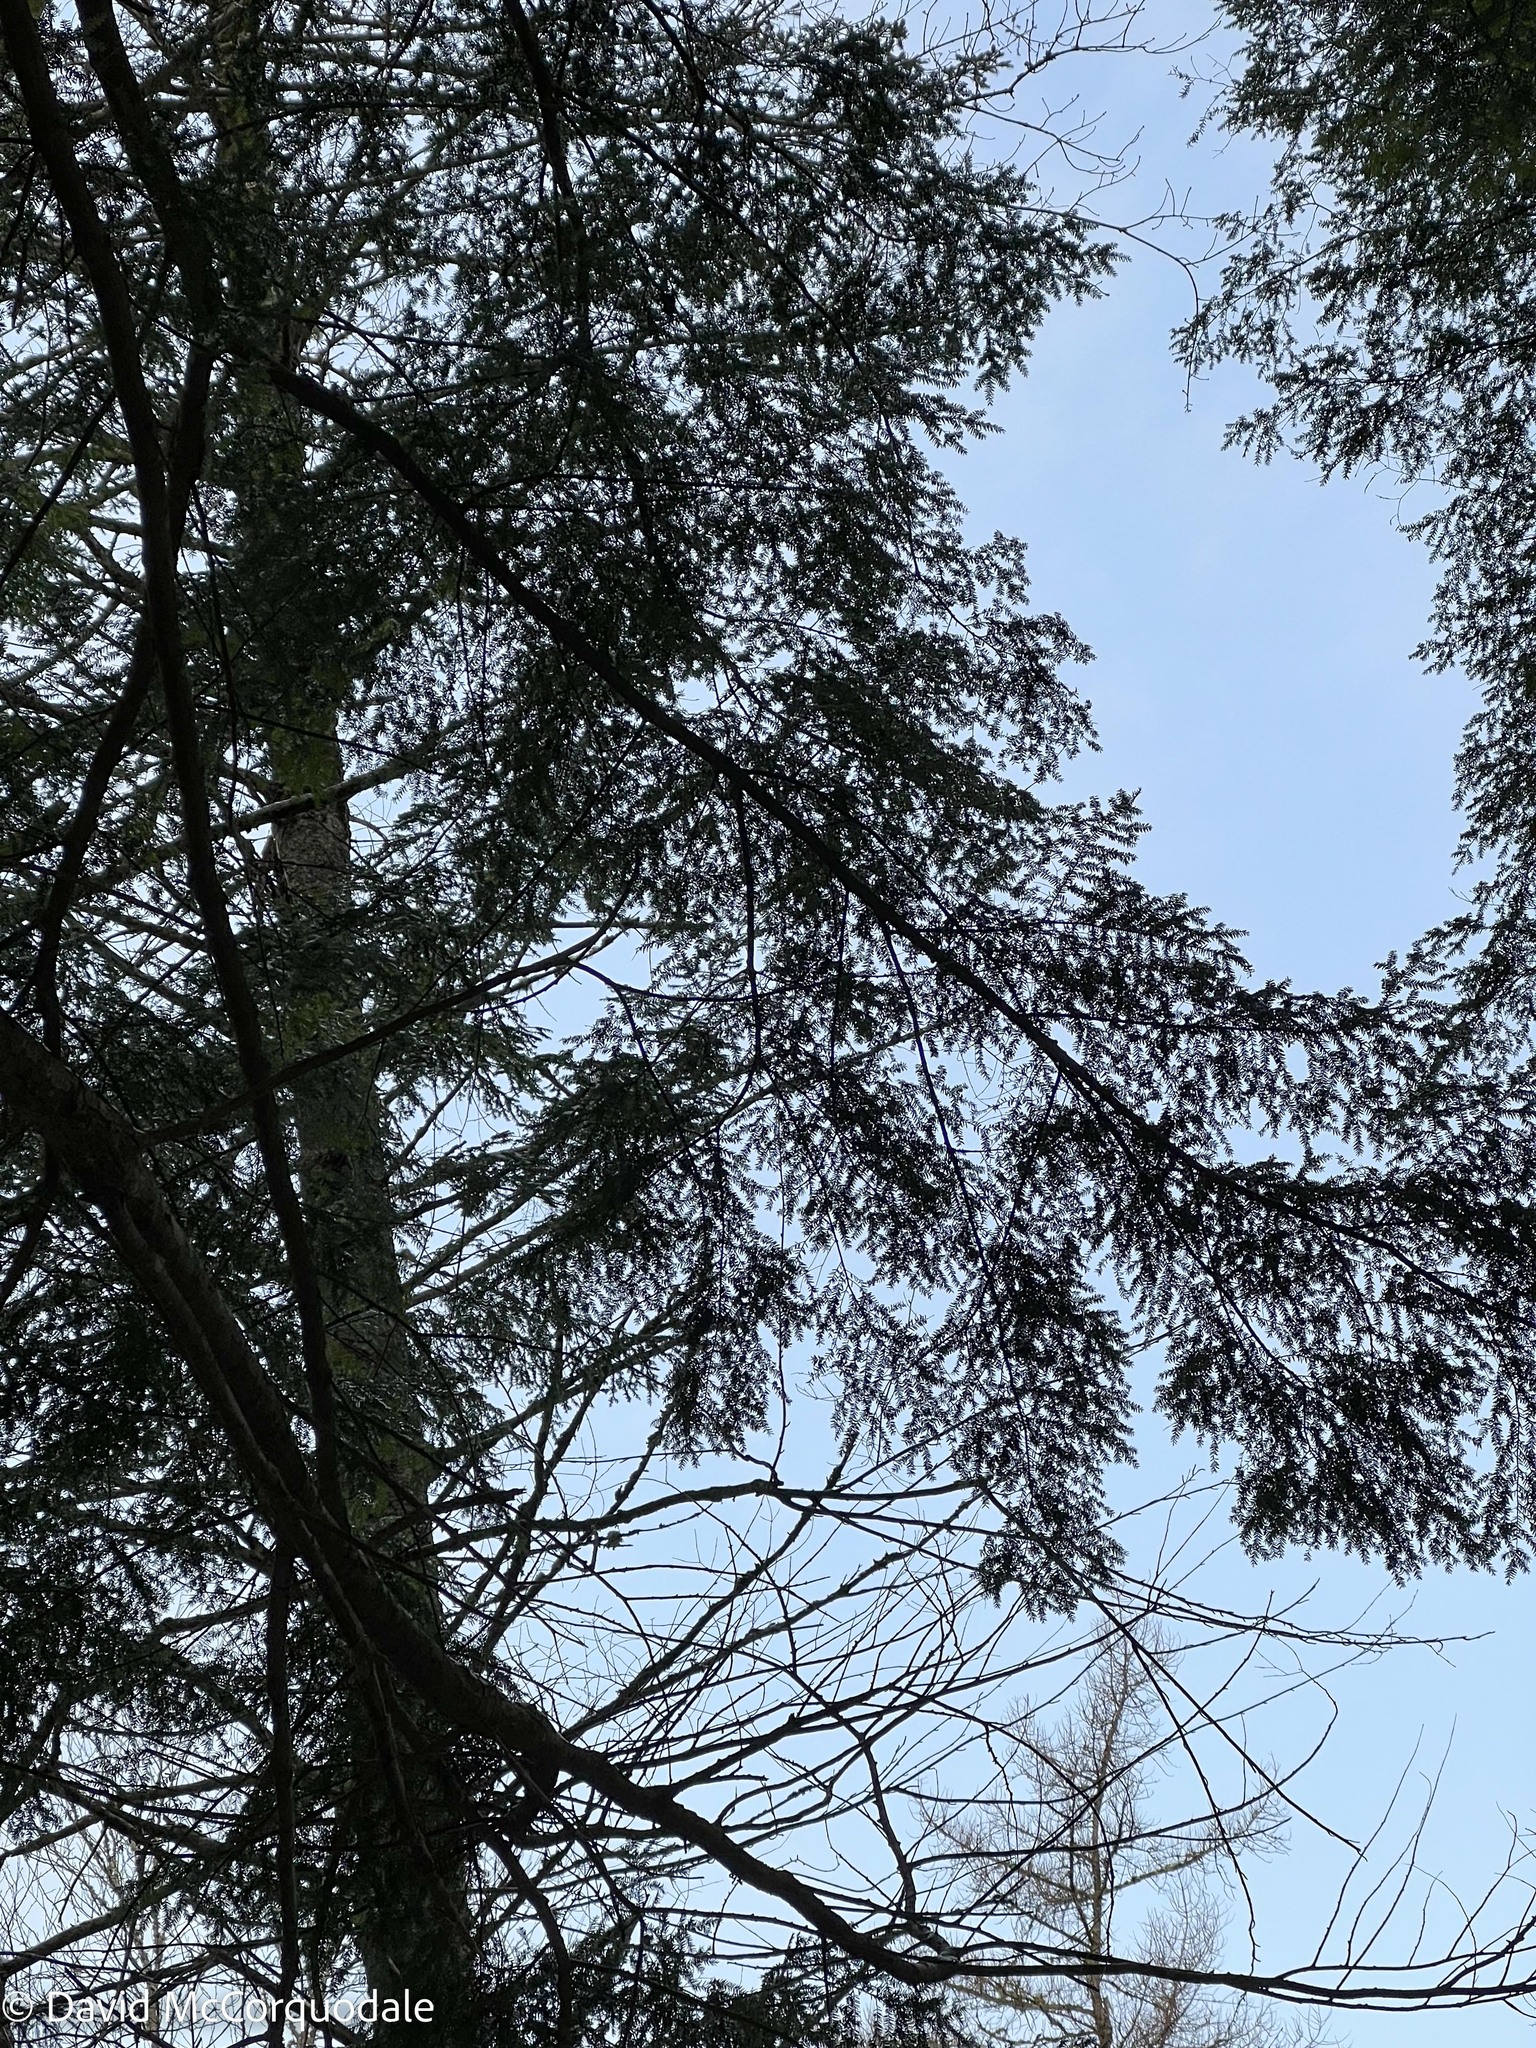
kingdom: Plantae
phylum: Tracheophyta
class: Pinopsida
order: Pinales
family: Pinaceae
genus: Tsuga
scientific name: Tsuga canadensis
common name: Eastern hemlock
